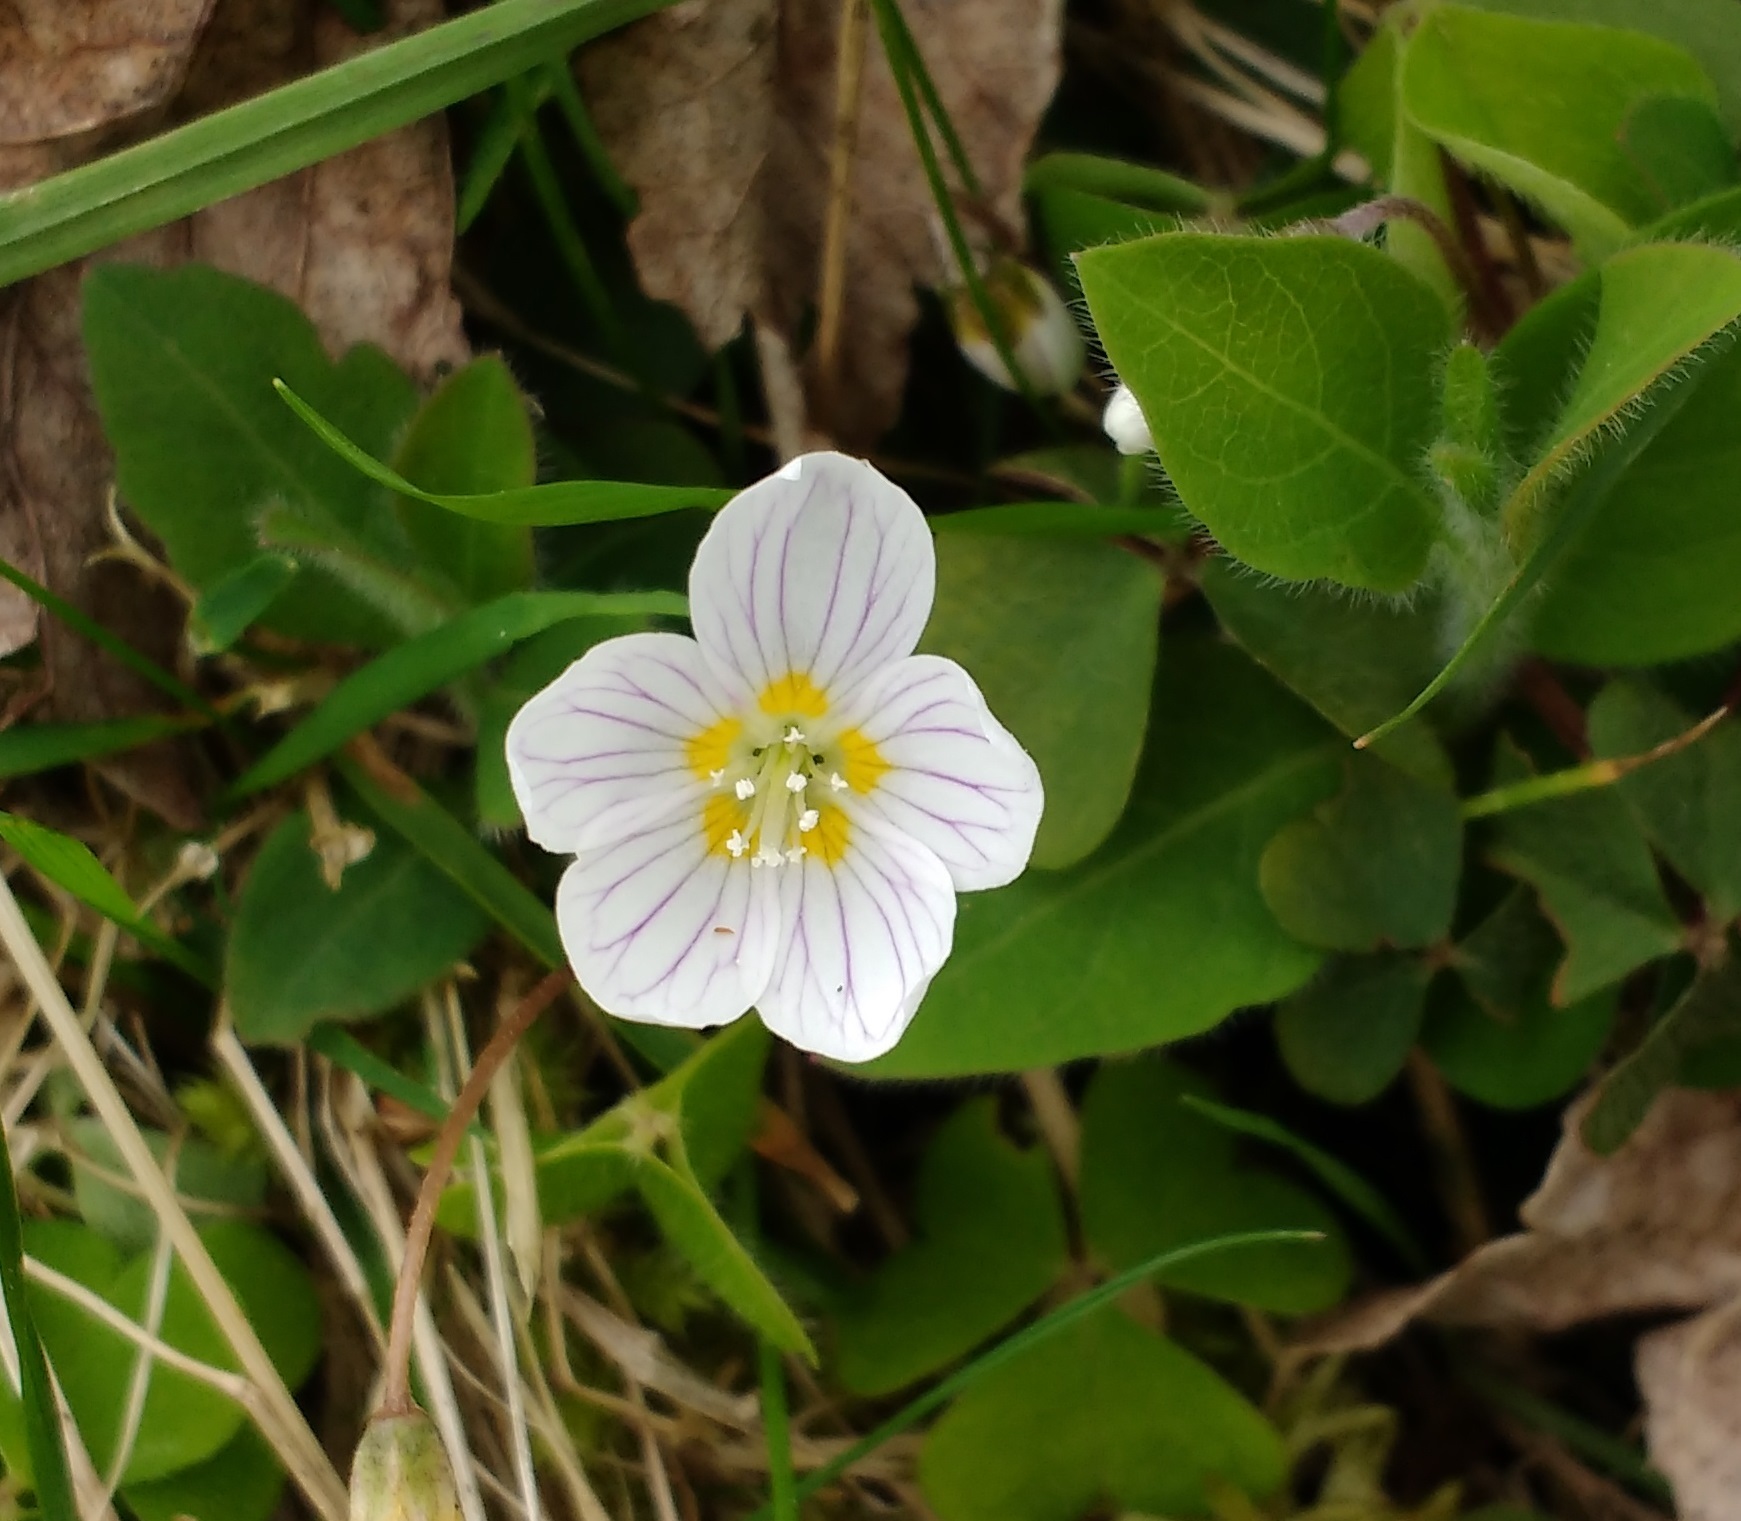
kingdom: Plantae
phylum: Tracheophyta
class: Magnoliopsida
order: Oxalidales
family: Oxalidaceae
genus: Oxalis
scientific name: Oxalis acetosella
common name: Wood-sorrel
